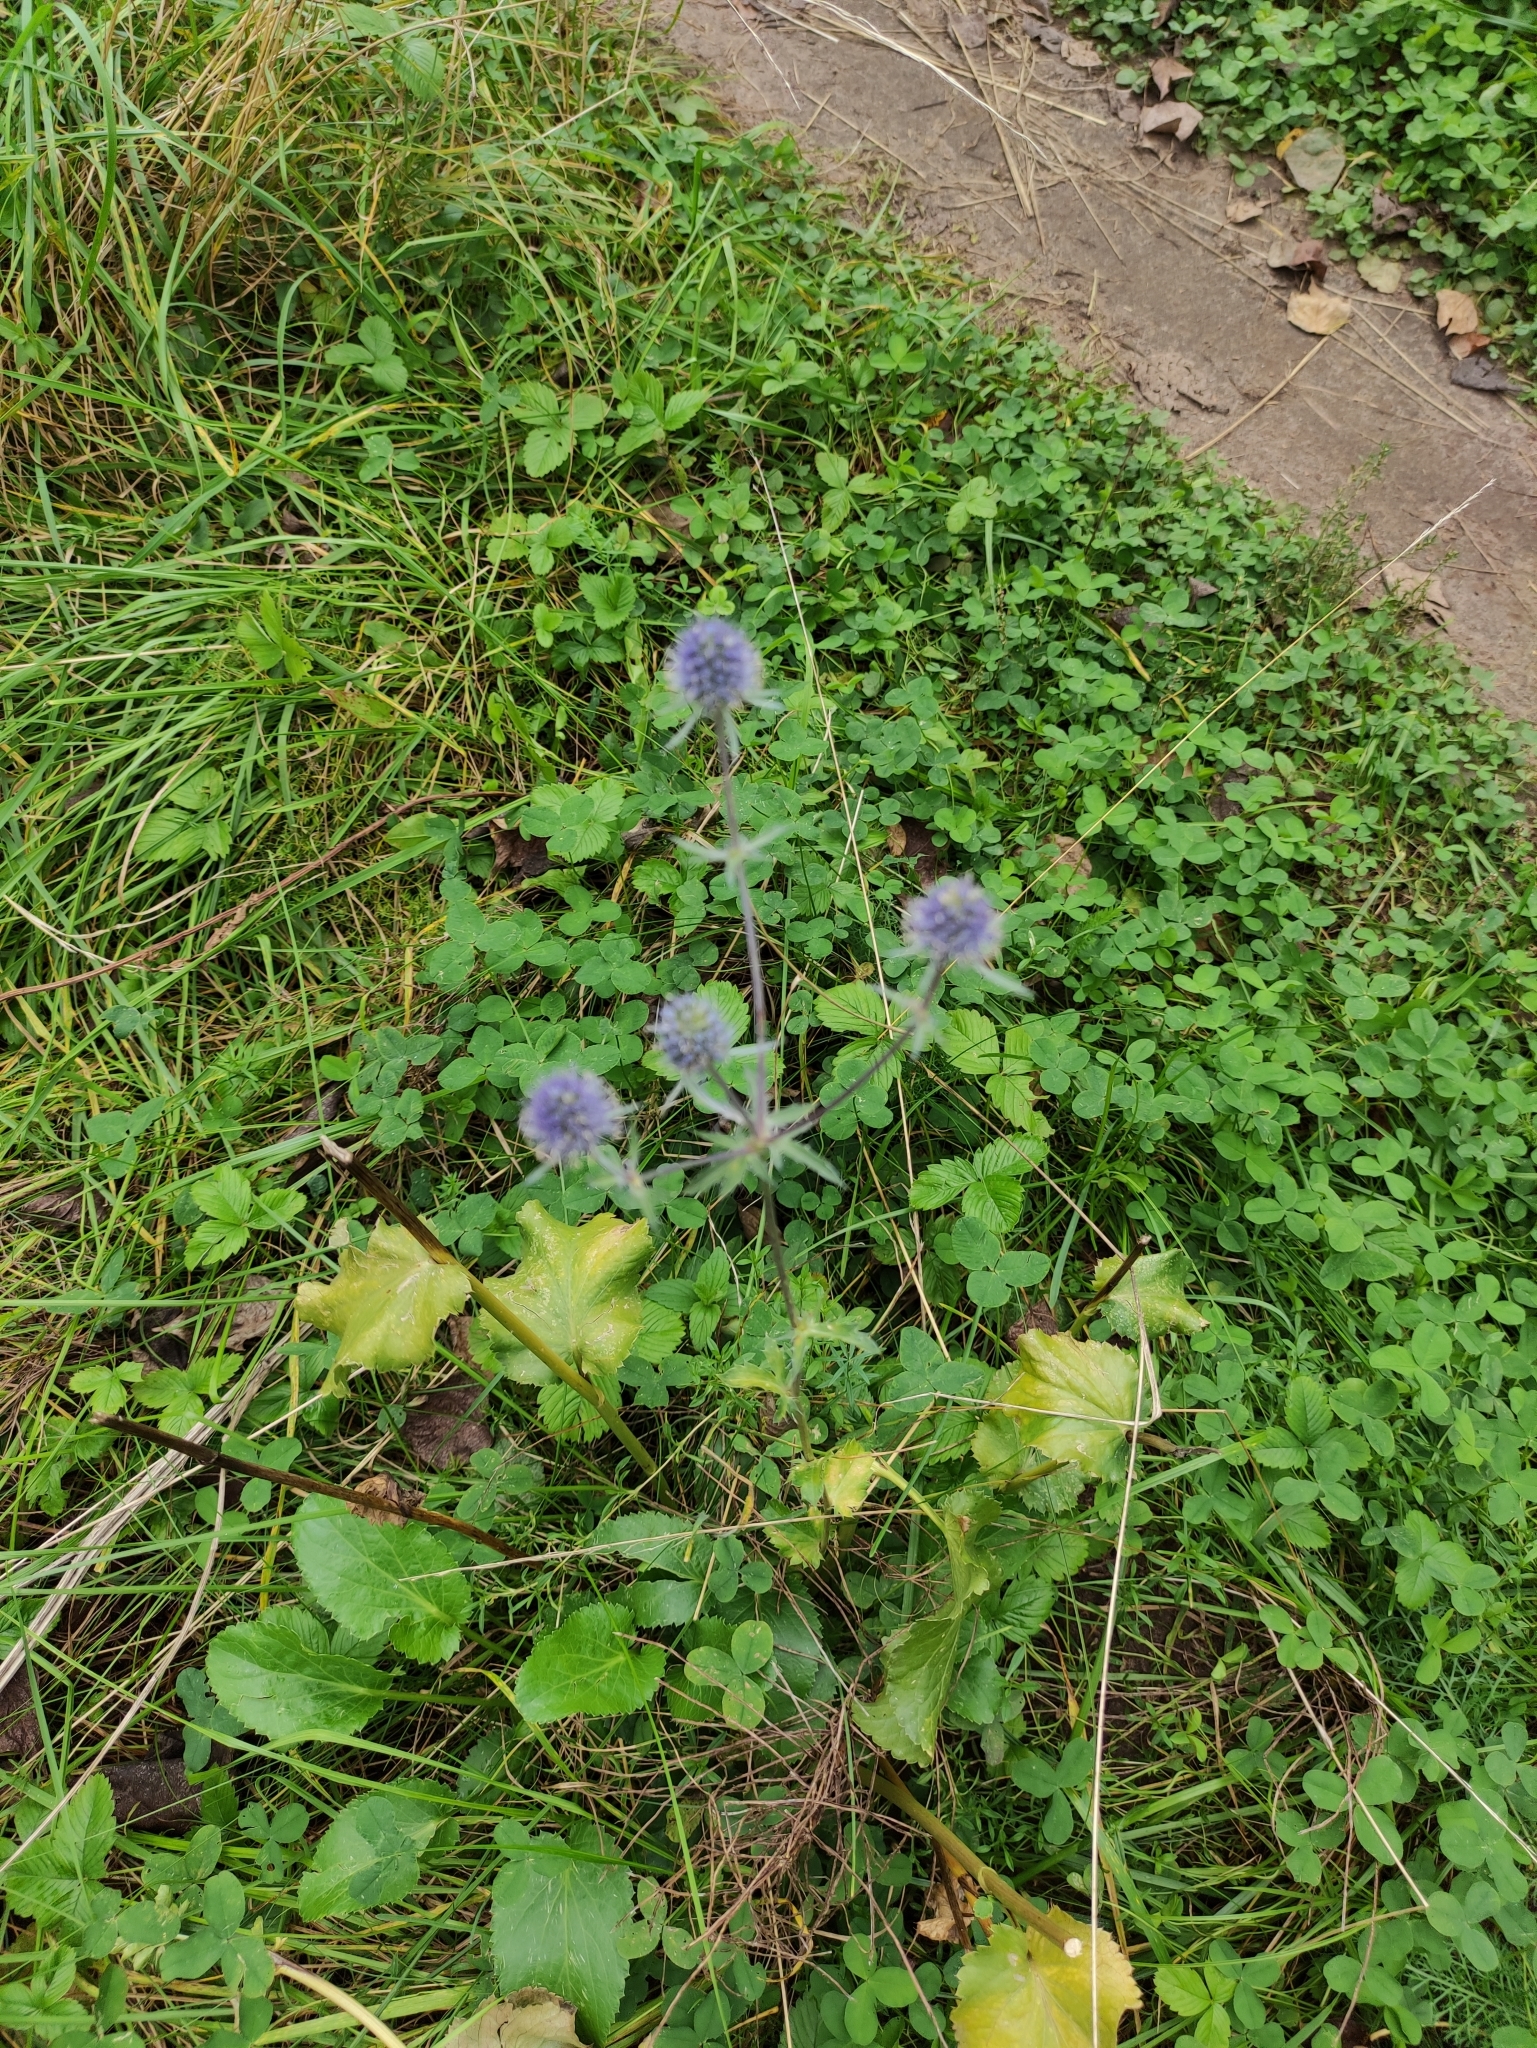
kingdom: Plantae
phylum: Tracheophyta
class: Magnoliopsida
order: Apiales
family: Apiaceae
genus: Eryngium
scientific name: Eryngium planum
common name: Blue eryngo
